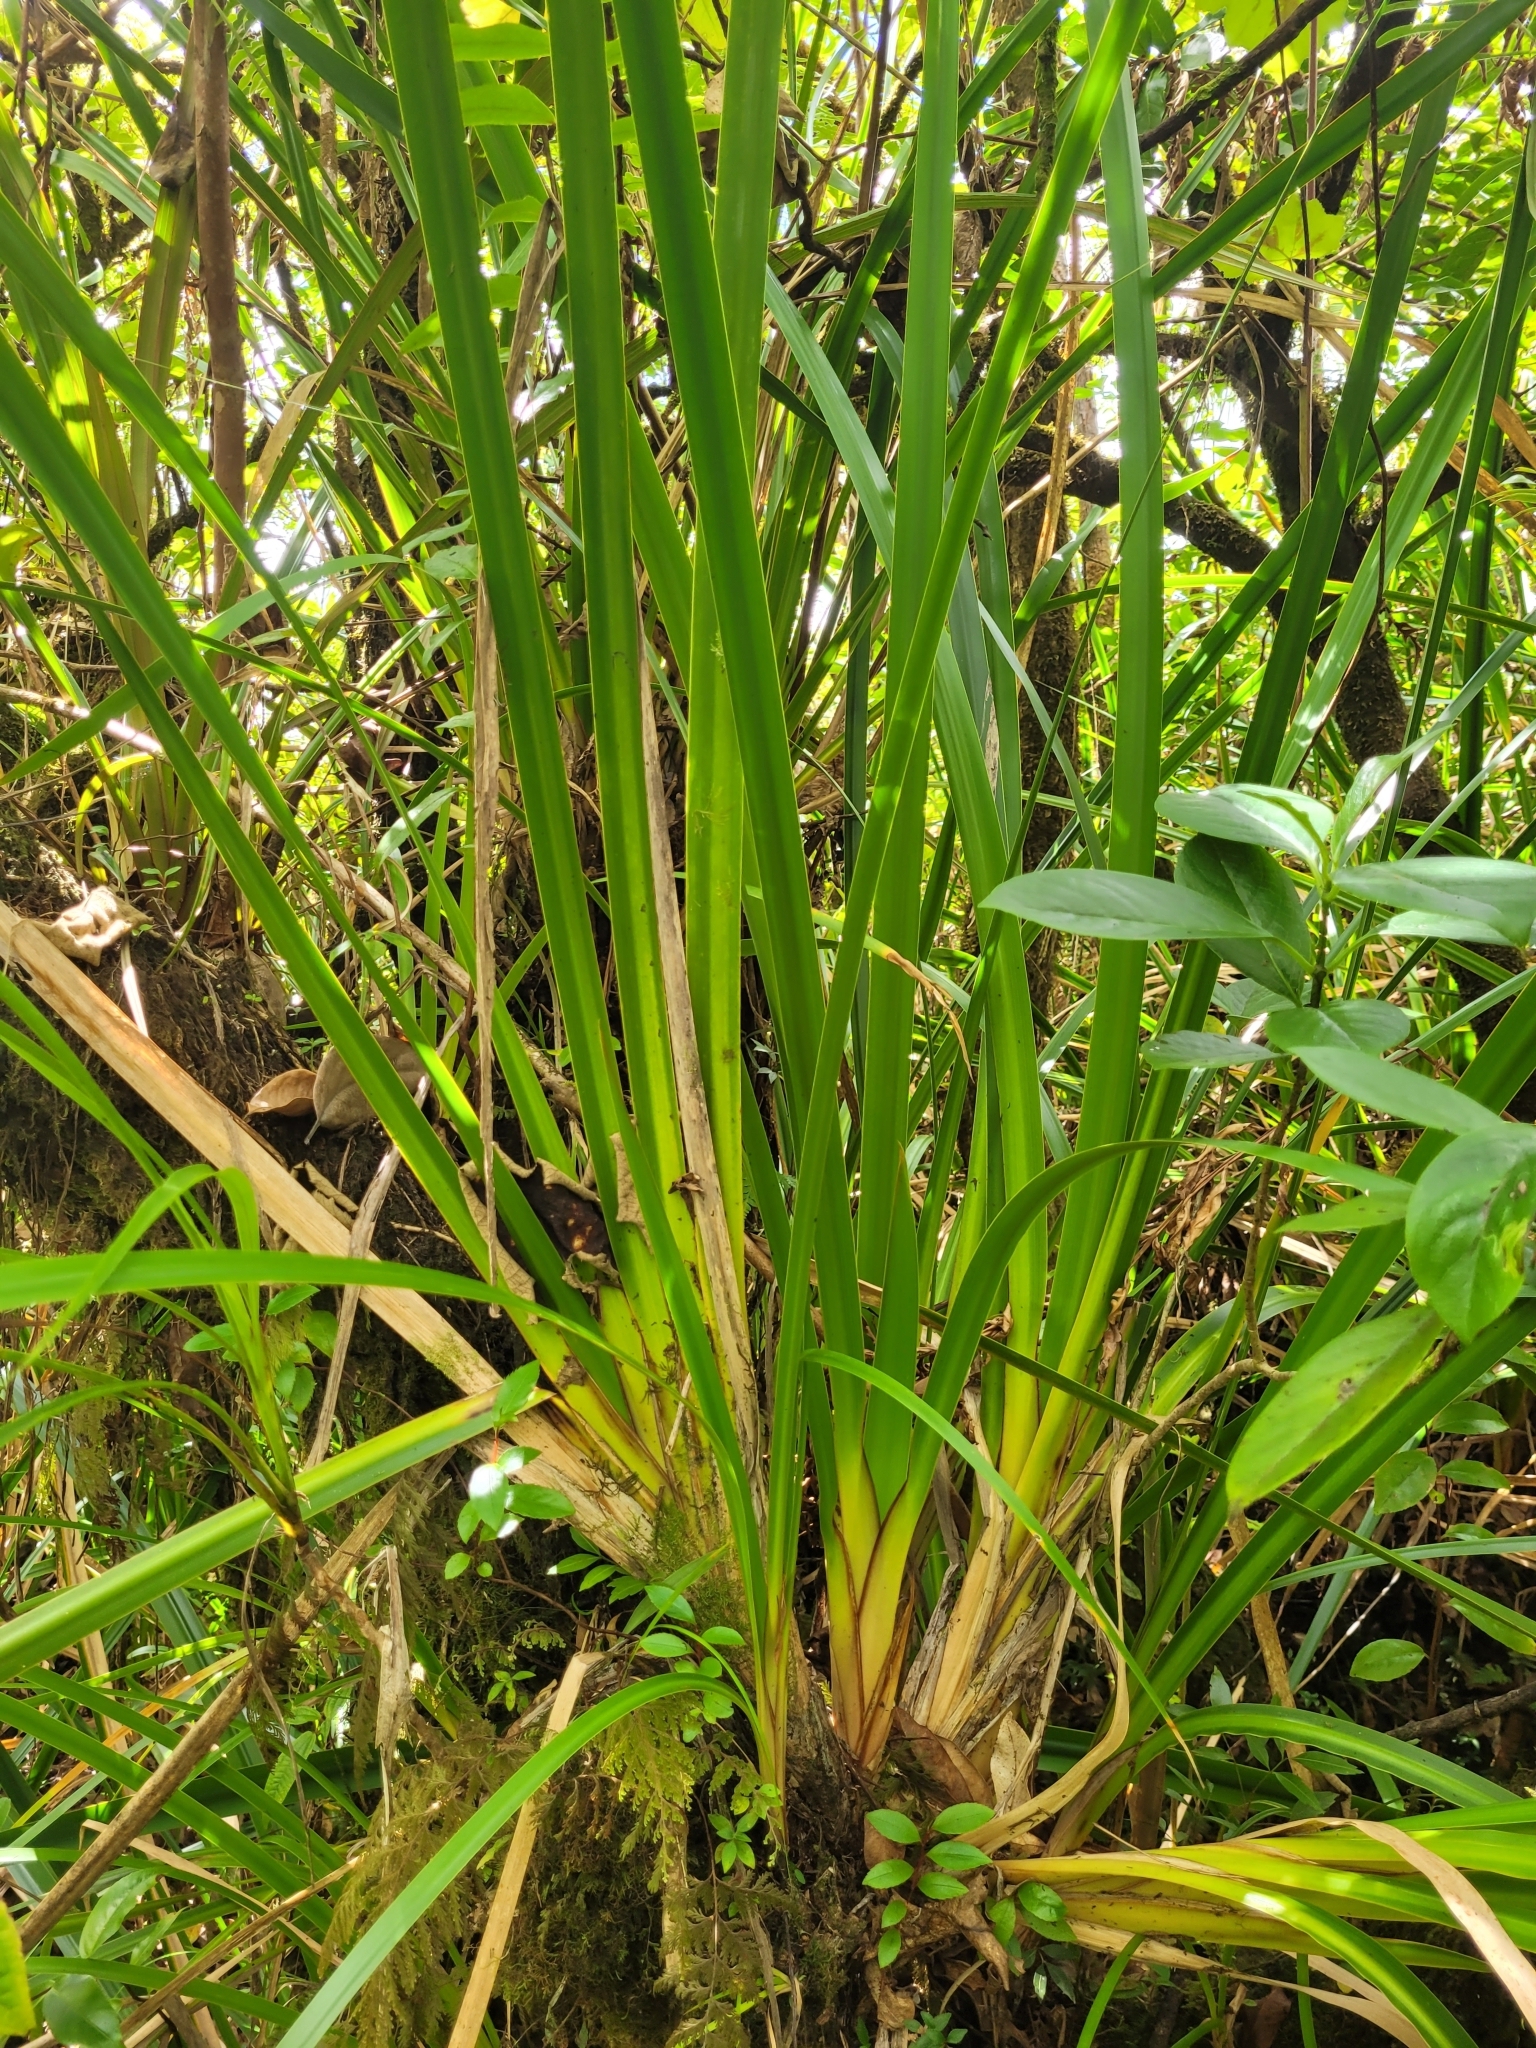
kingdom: Plantae
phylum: Tracheophyta
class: Liliopsida
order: Poales
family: Cyperaceae
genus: Machaerina
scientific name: Machaerina iridifolia
